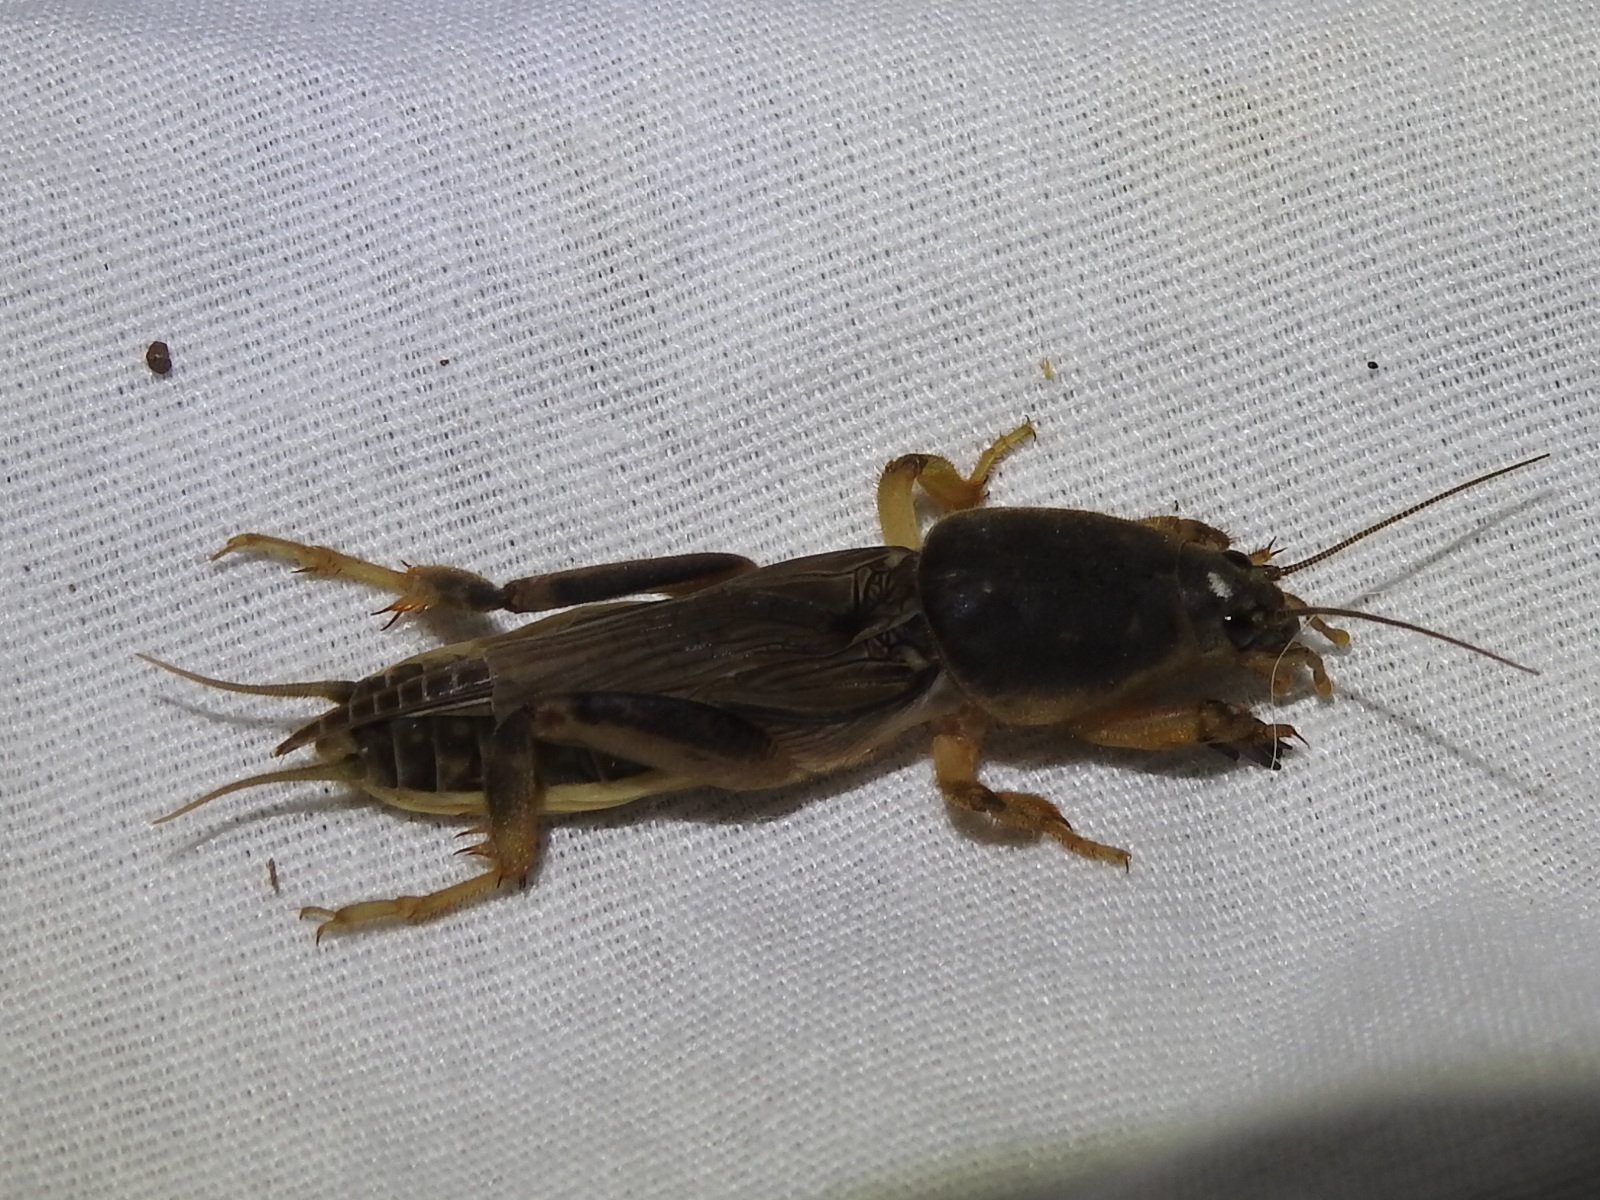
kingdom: Animalia
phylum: Arthropoda
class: Insecta
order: Orthoptera
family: Gryllotalpidae
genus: Neoscapteriscus
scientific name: Neoscapteriscus borellii
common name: Southern mole cricket
